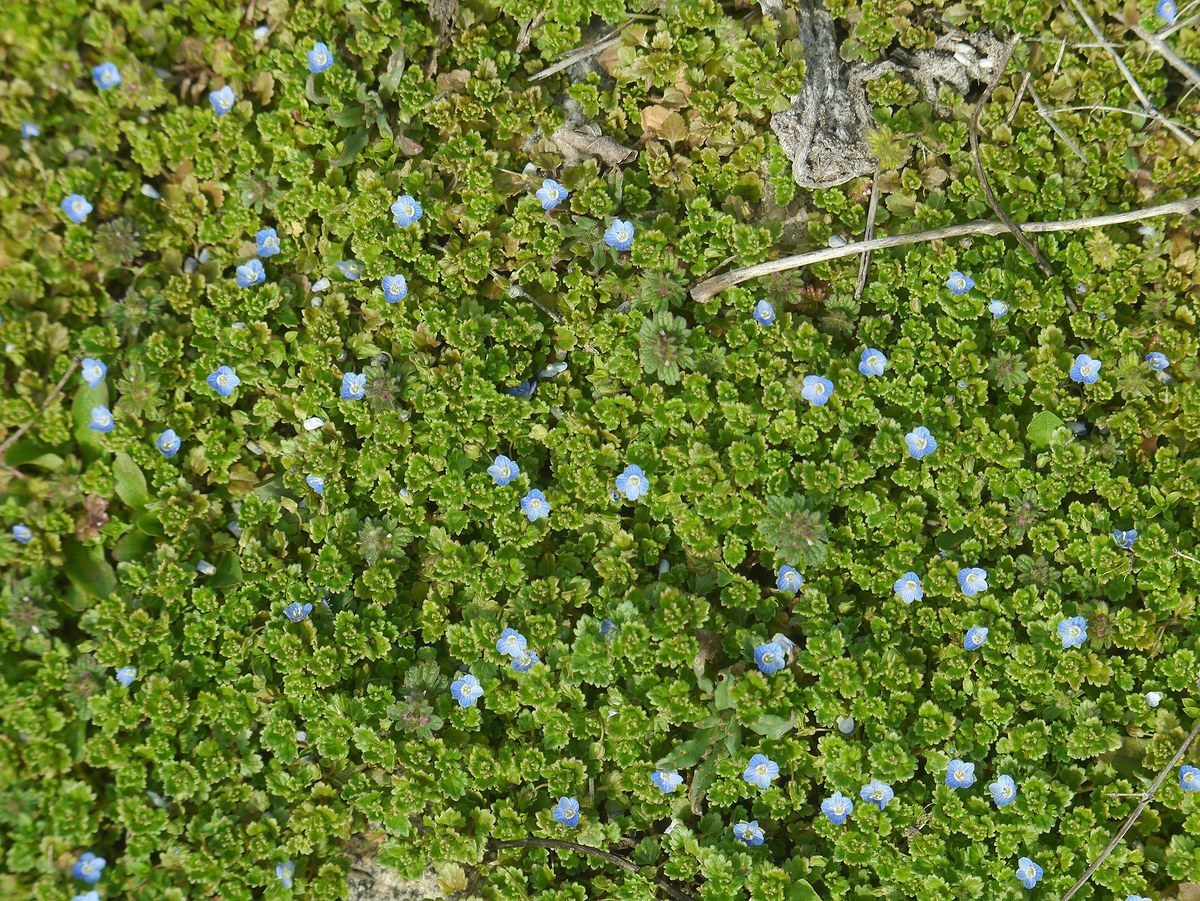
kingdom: Plantae
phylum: Tracheophyta
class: Magnoliopsida
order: Lamiales
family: Plantaginaceae
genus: Veronica
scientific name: Veronica persica
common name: Common field-speedwell
